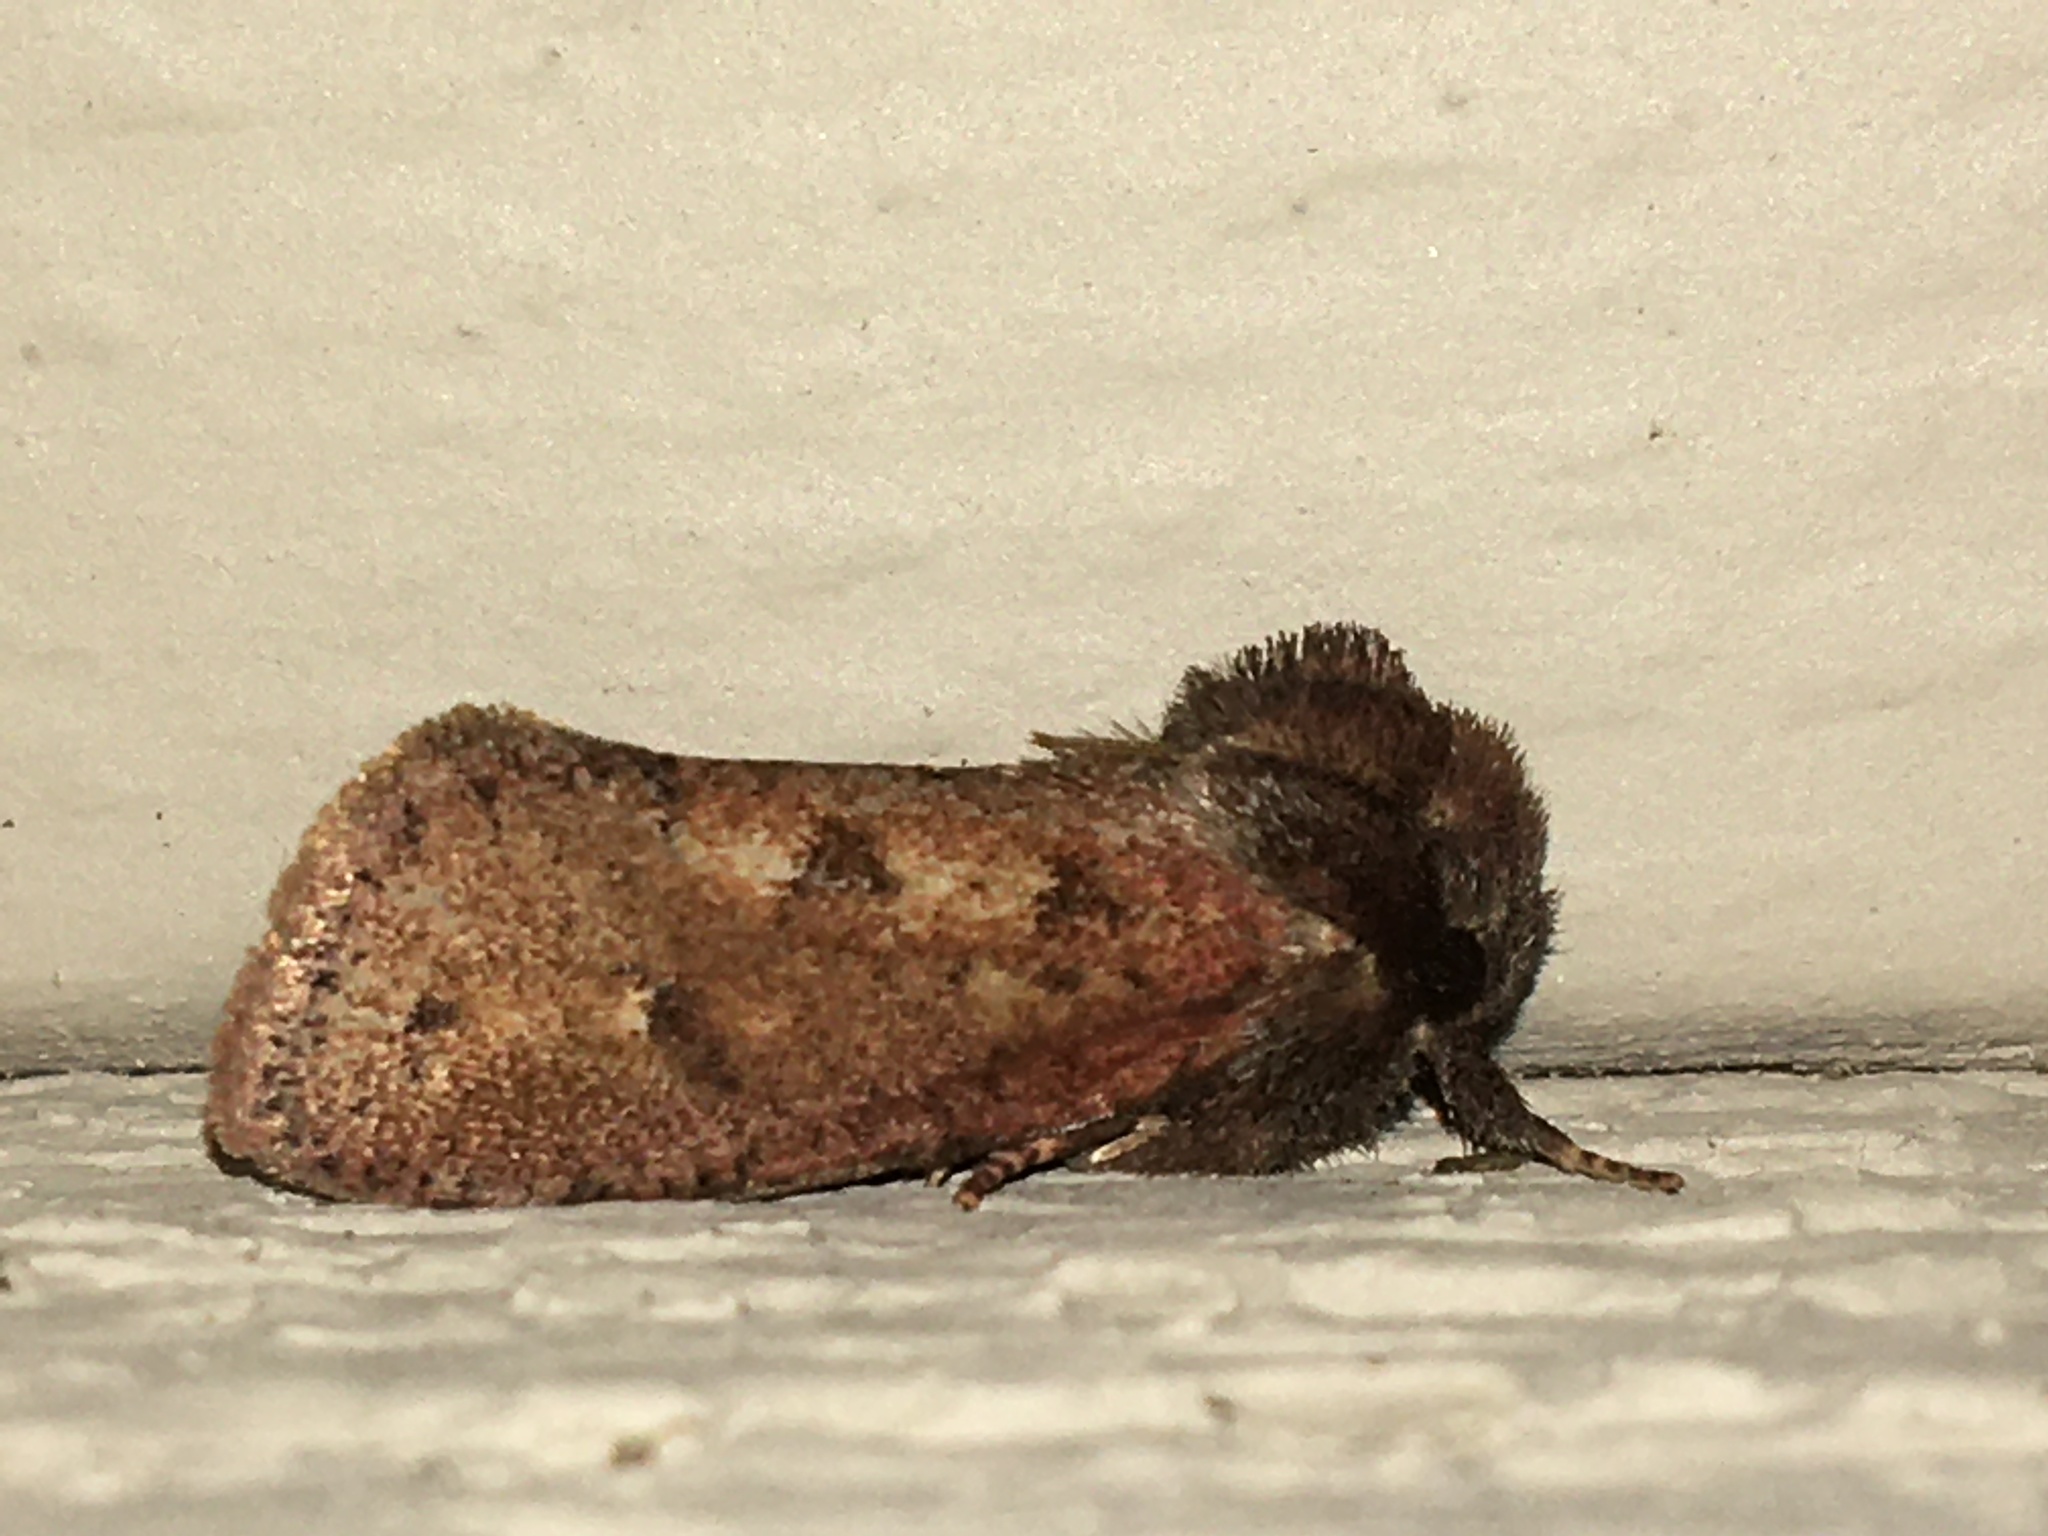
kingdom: Animalia
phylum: Arthropoda
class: Insecta
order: Lepidoptera
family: Tineidae
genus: Acrolophus
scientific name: Acrolophus plumifrontella
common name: Eastern grass tubeworm moth
